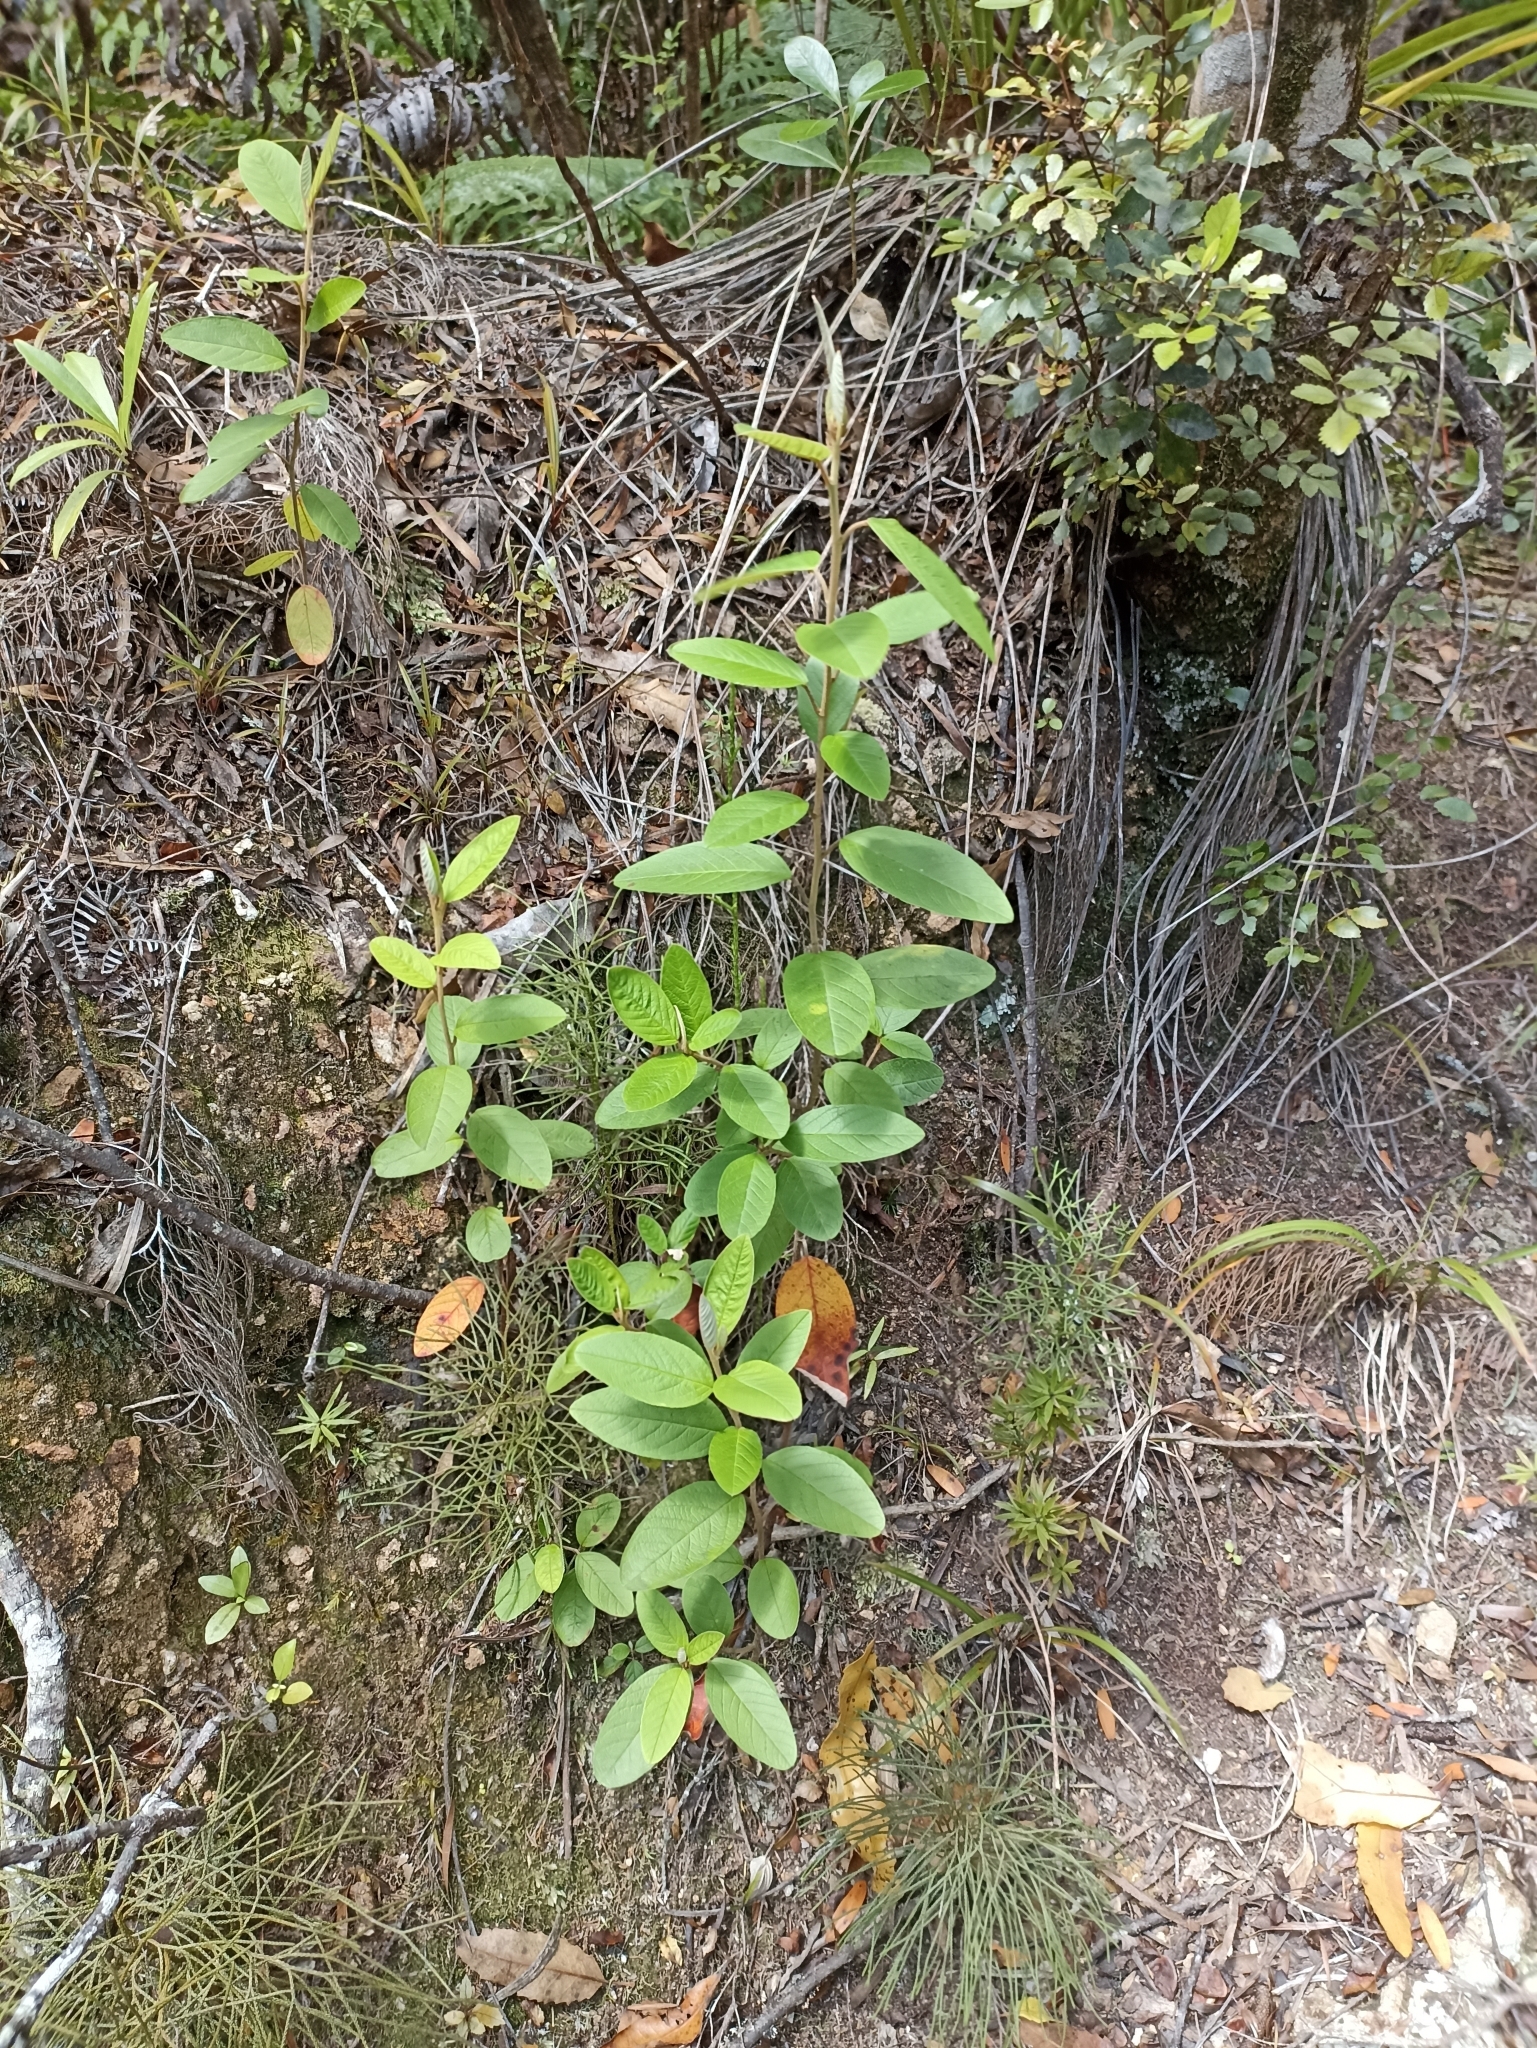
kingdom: Plantae
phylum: Tracheophyta
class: Magnoliopsida
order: Rosales
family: Rhamnaceae
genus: Pomaderris
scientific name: Pomaderris kumeraho
